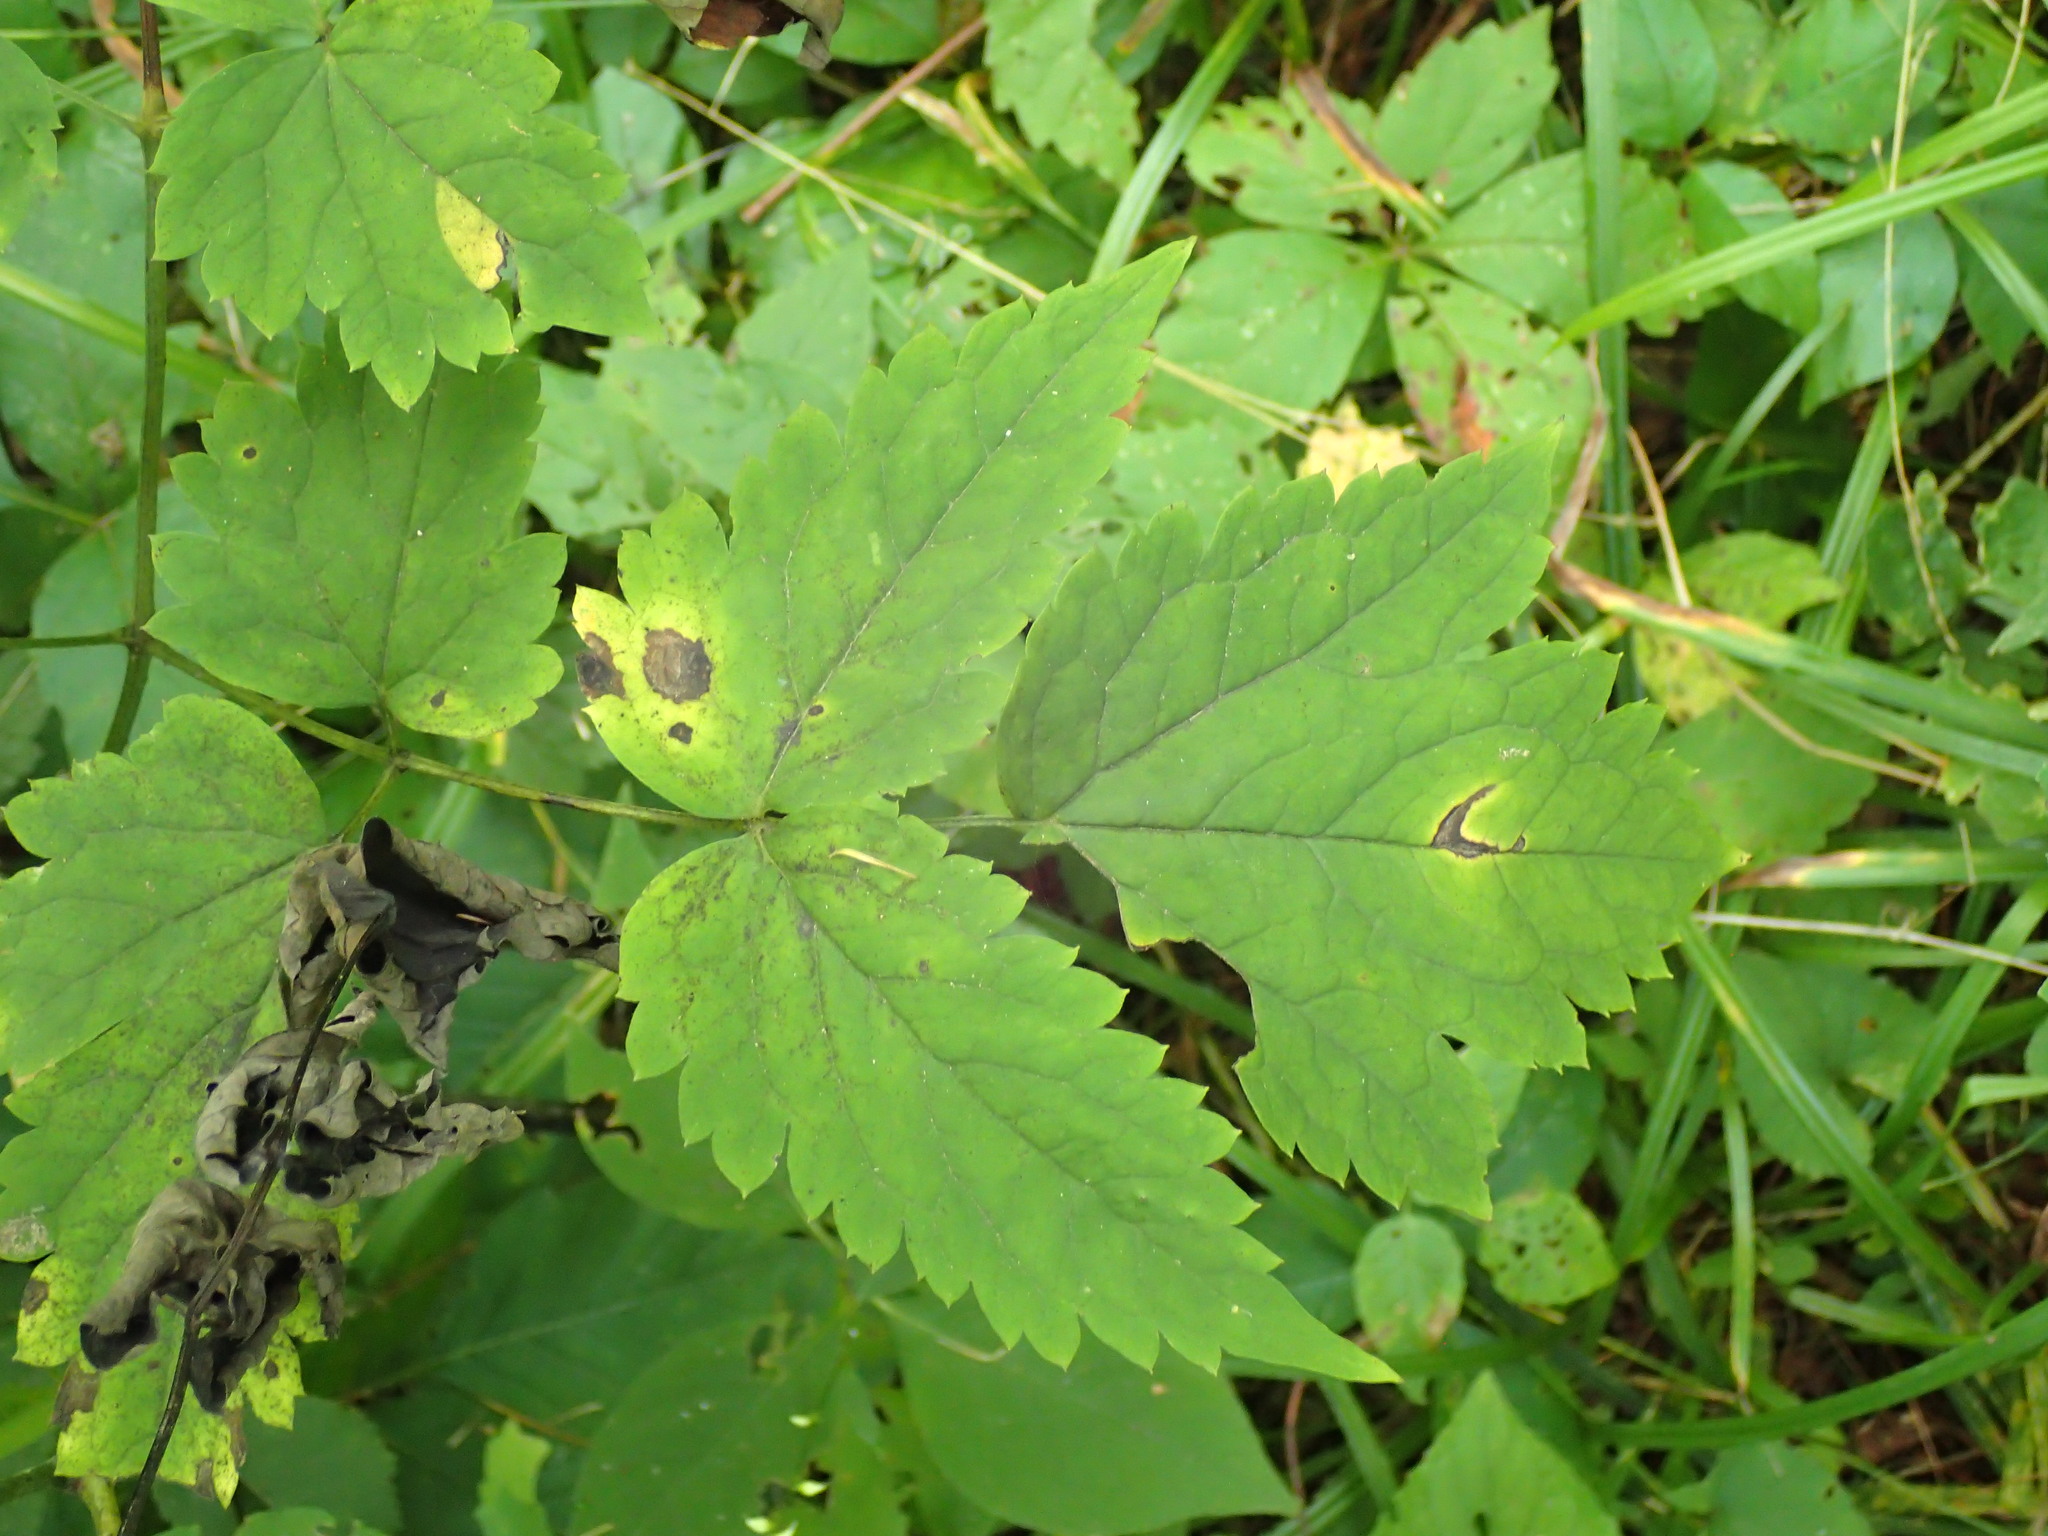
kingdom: Plantae
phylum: Tracheophyta
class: Magnoliopsida
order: Ranunculales
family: Ranunculaceae
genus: Actaea
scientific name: Actaea pachypoda
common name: Doll's-eyes
